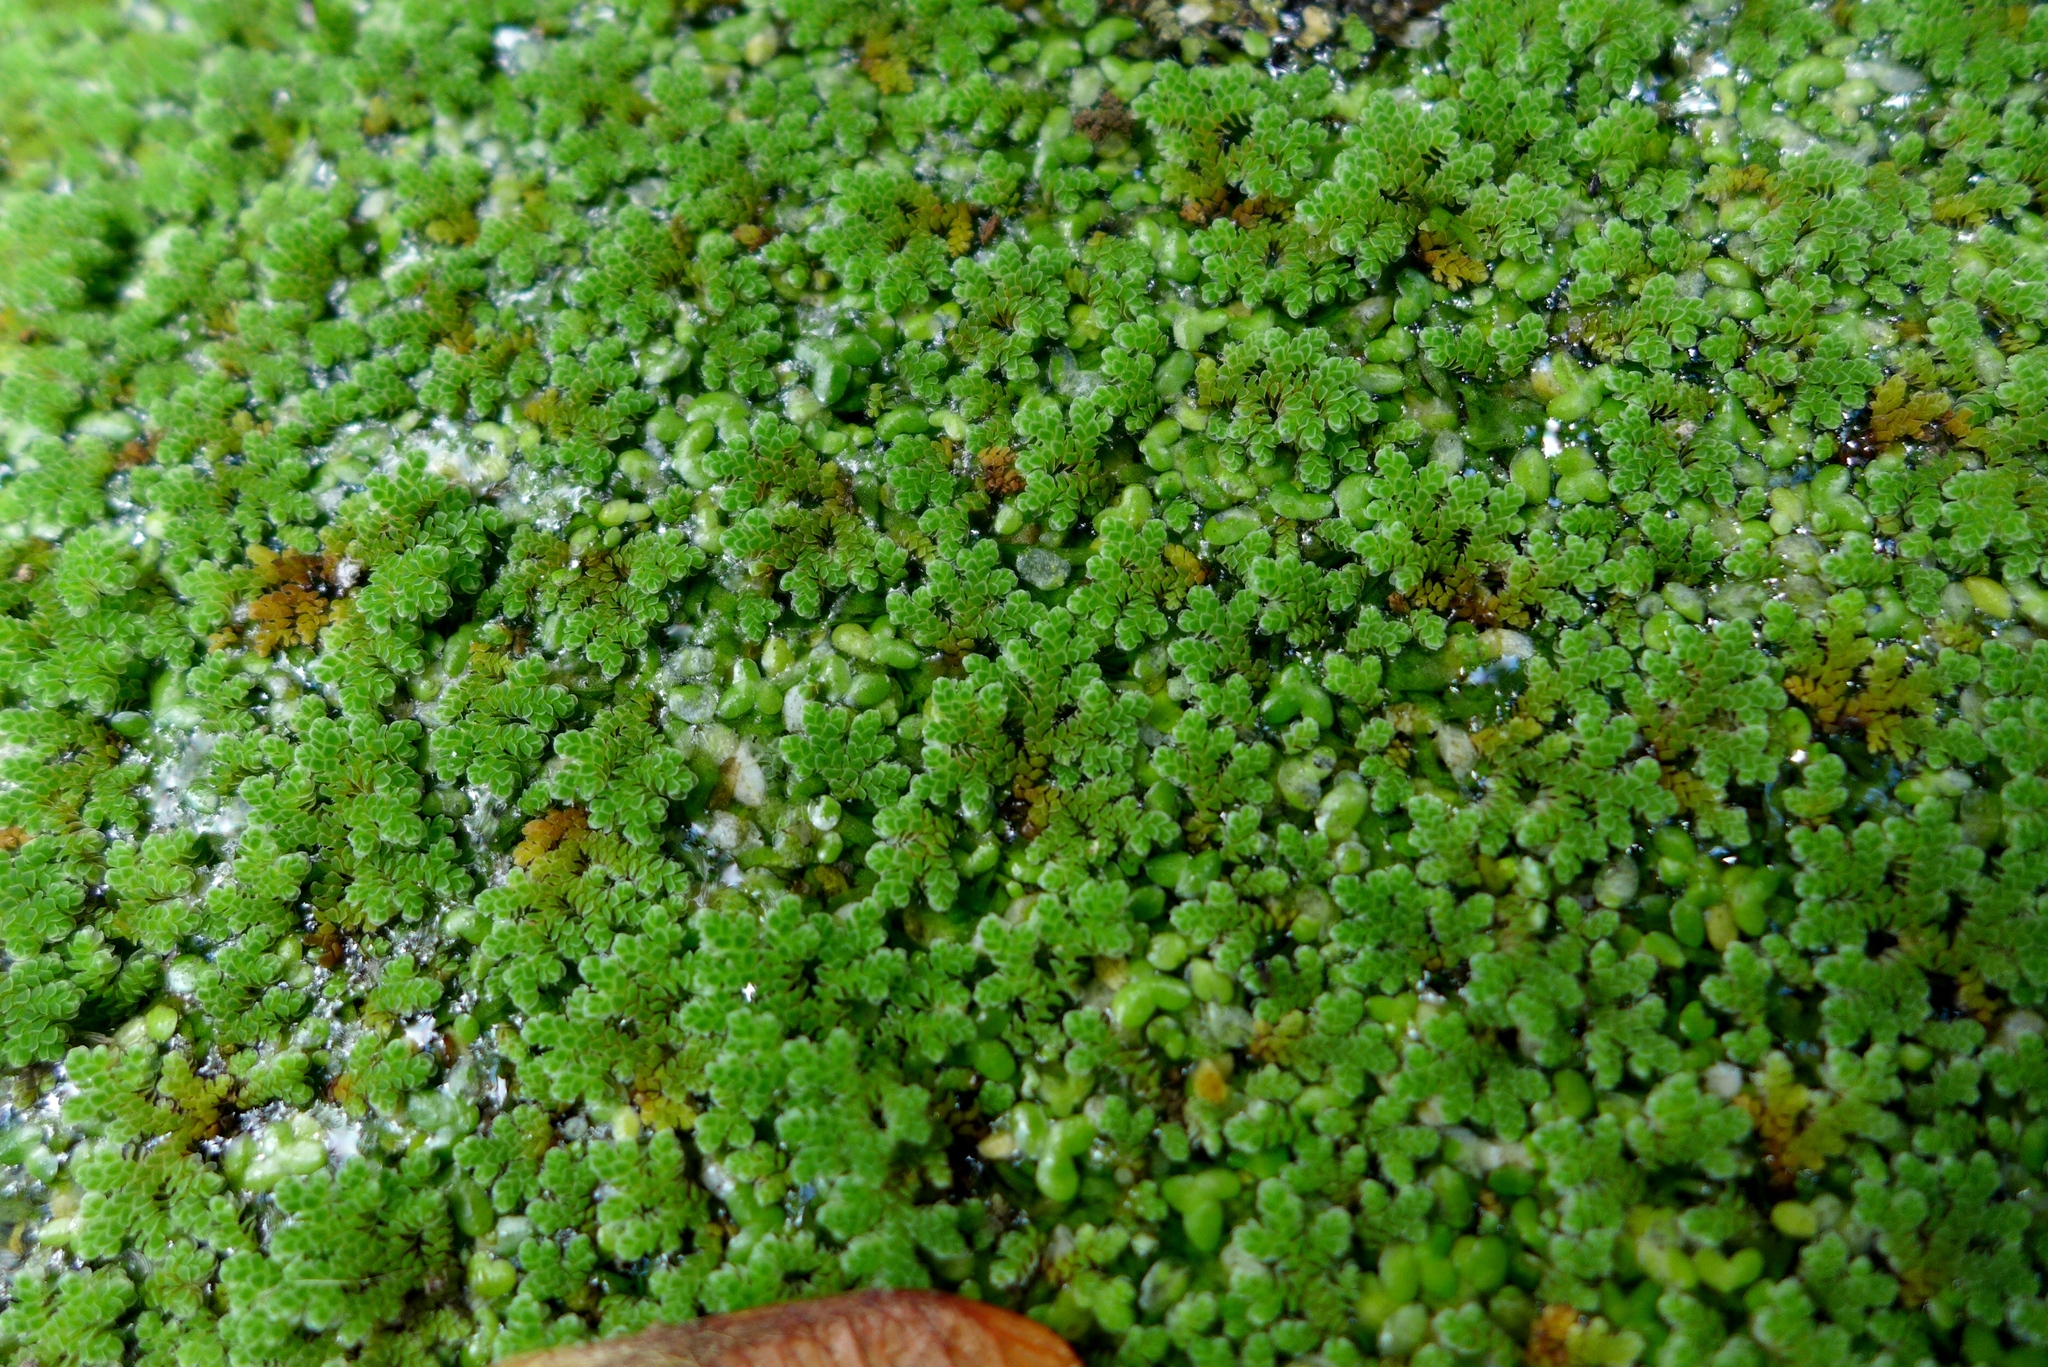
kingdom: Plantae
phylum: Tracheophyta
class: Polypodiopsida
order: Salviniales
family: Salviniaceae
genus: Azolla
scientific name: Azolla filiculoides
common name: Water fern
